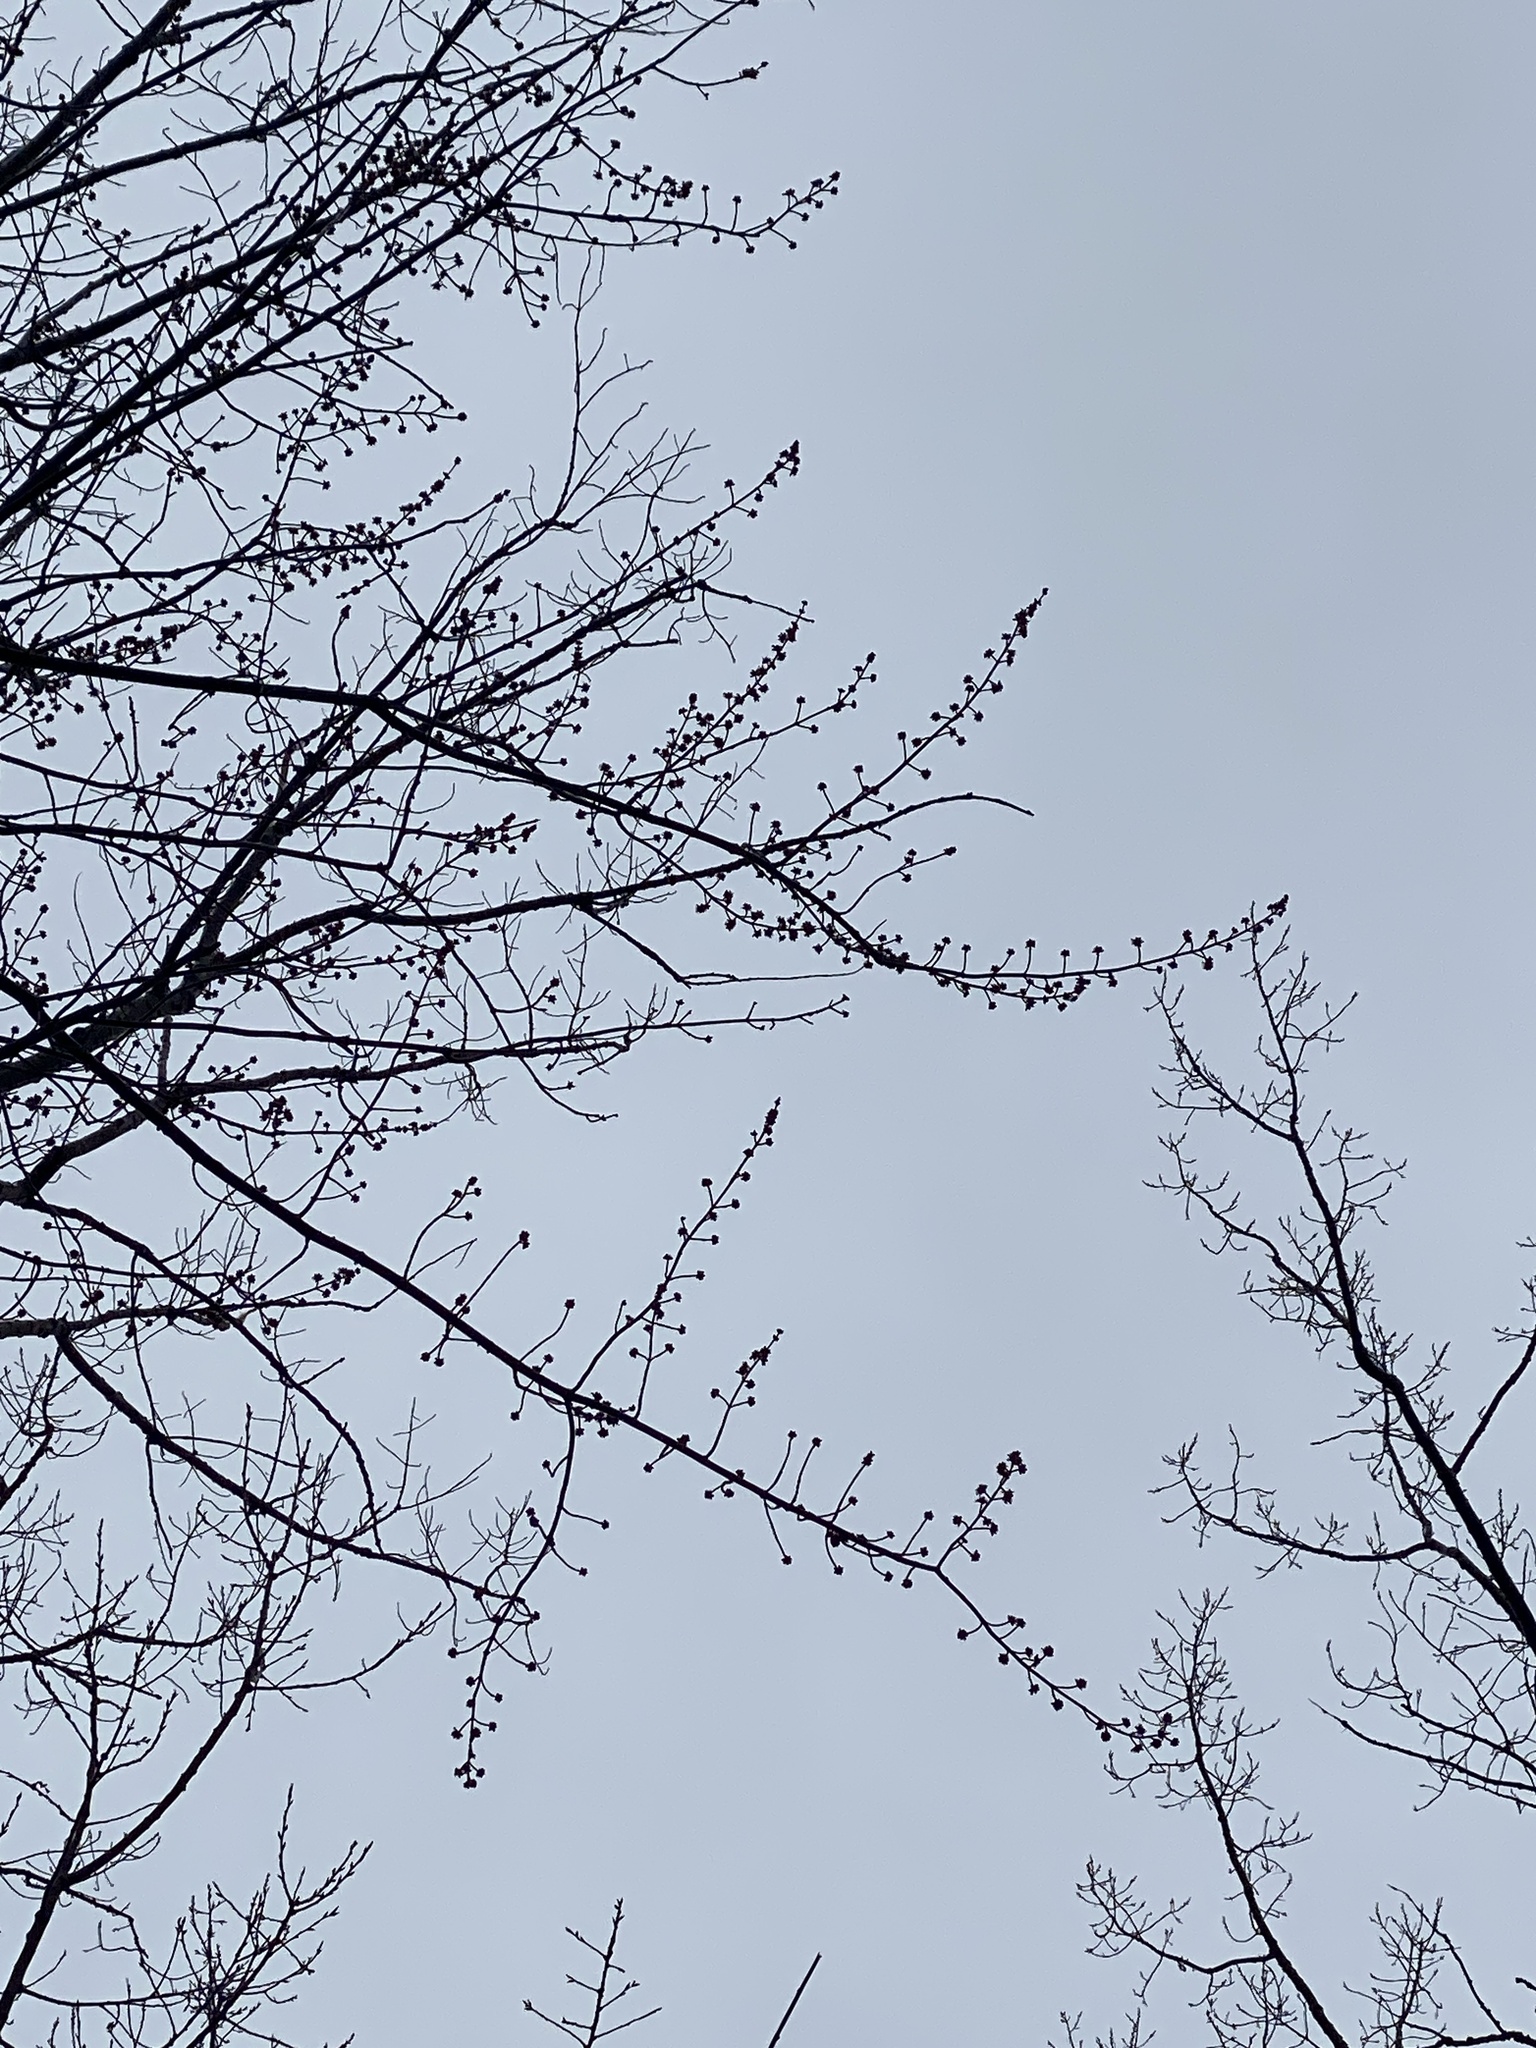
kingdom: Plantae
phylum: Tracheophyta
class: Magnoliopsida
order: Sapindales
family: Sapindaceae
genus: Acer
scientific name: Acer saccharinum
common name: Silver maple
